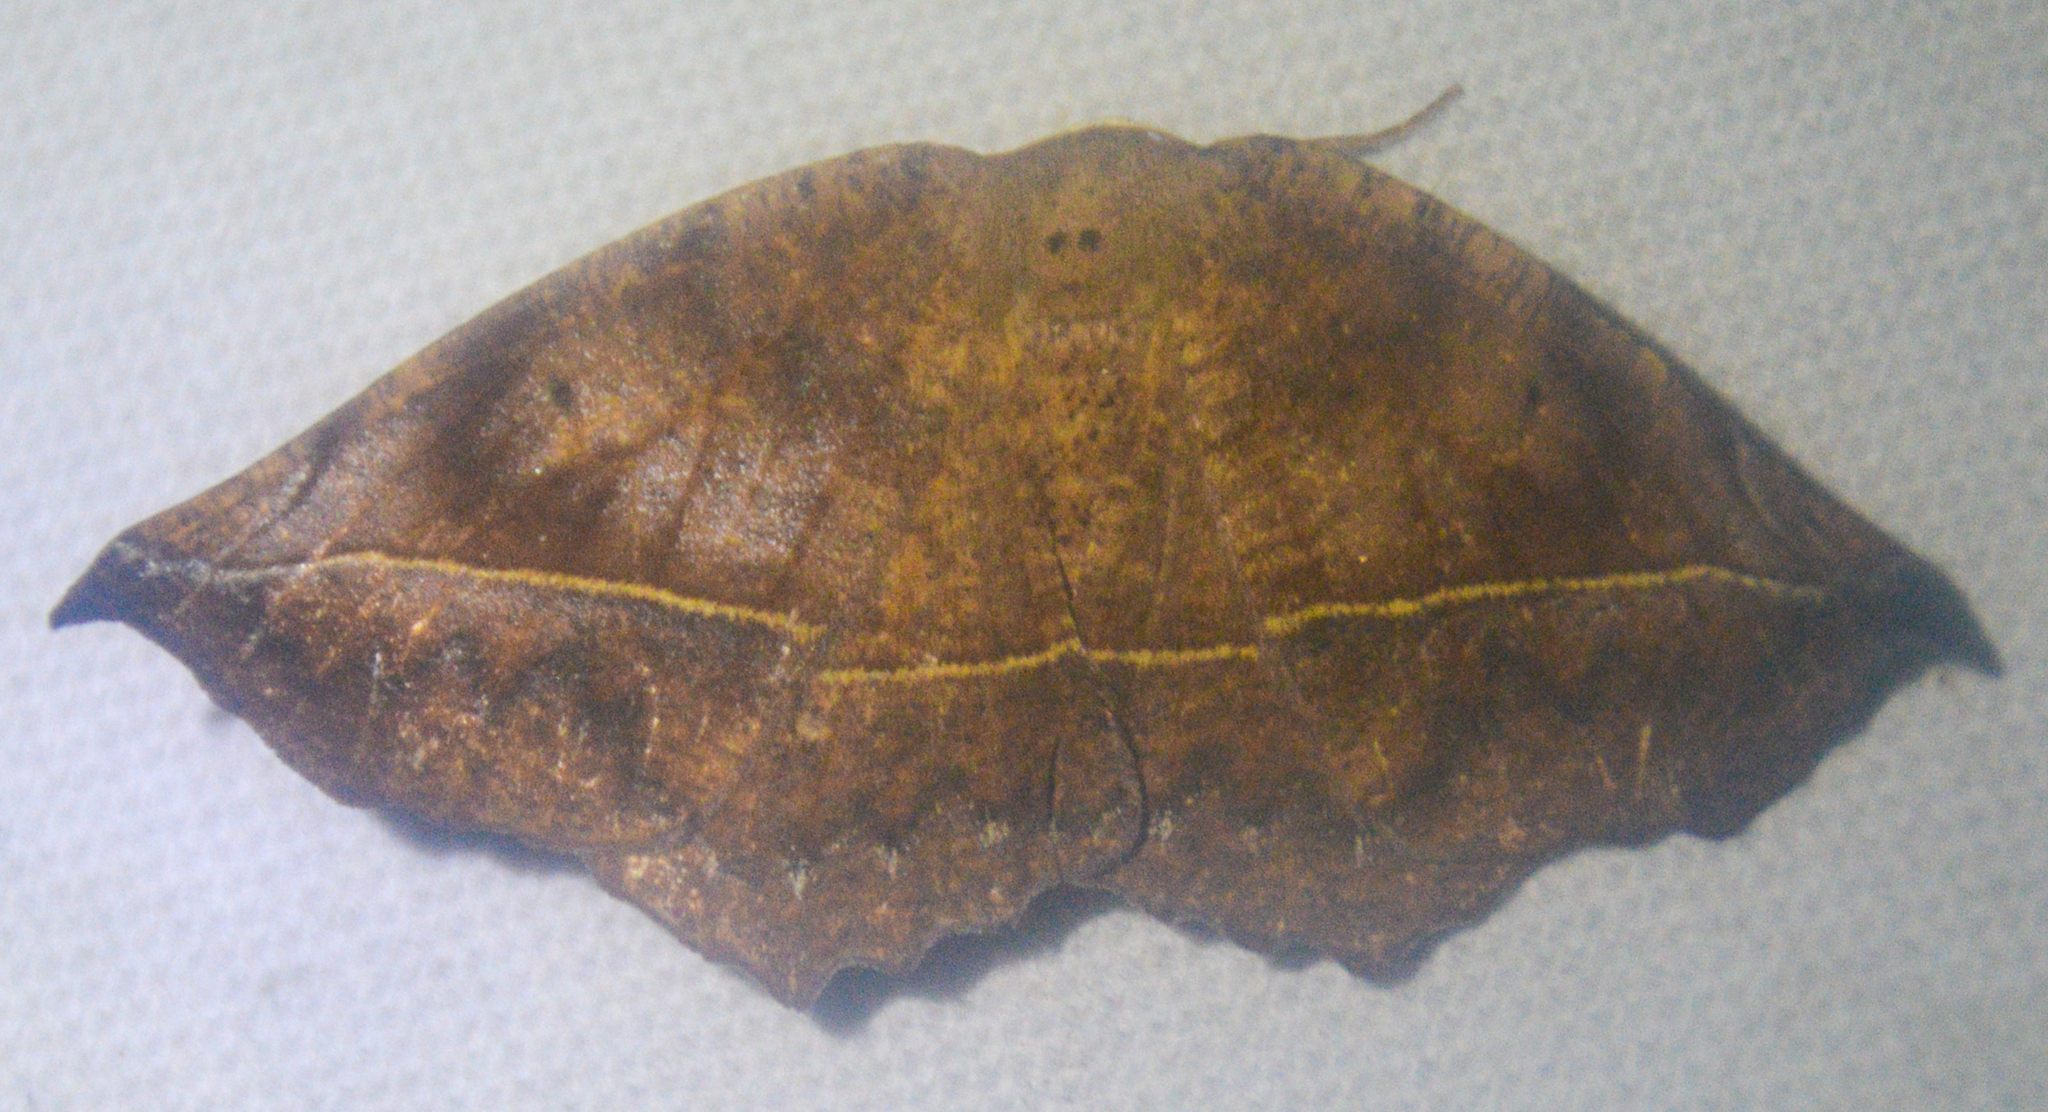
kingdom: Animalia
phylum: Arthropoda
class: Insecta
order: Lepidoptera
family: Geometridae
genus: Eutrapela
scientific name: Eutrapela clemataria
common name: Curved-toothed geometer
